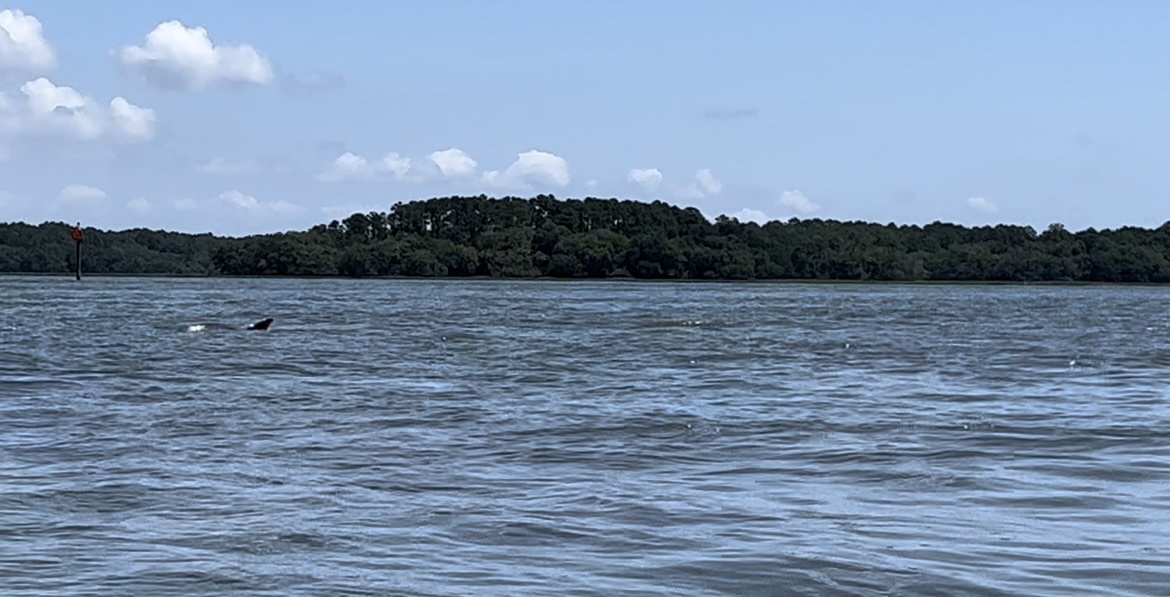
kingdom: Animalia
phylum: Chordata
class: Mammalia
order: Cetacea
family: Delphinidae
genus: Tursiops
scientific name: Tursiops truncatus
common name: Bottlenose dolphin
